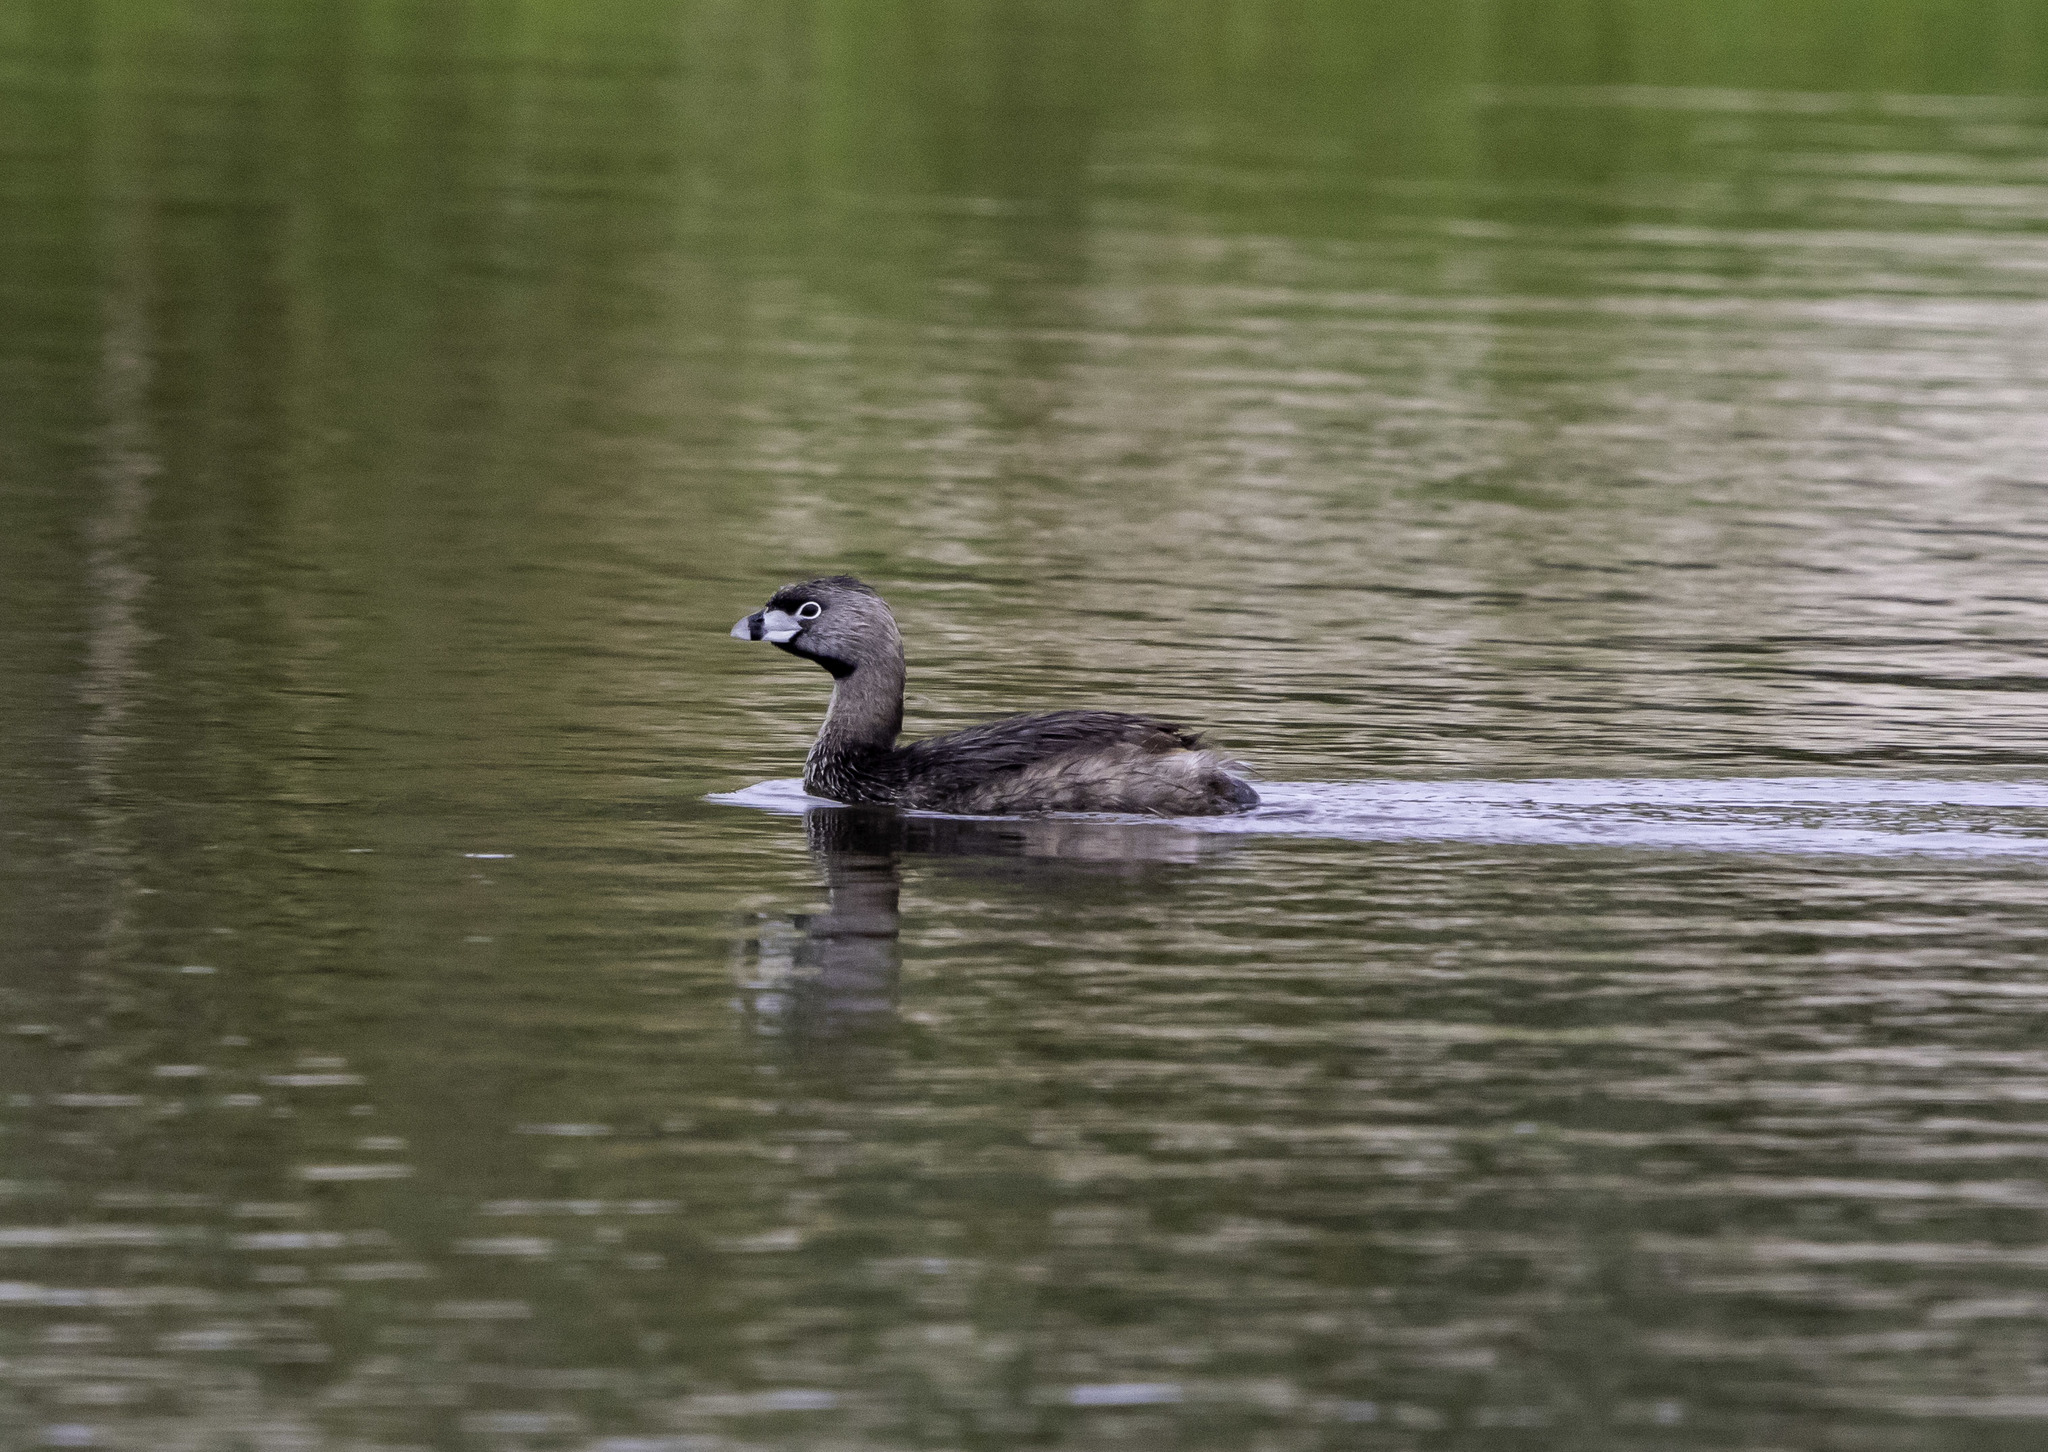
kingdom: Animalia
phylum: Chordata
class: Aves
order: Podicipediformes
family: Podicipedidae
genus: Podilymbus
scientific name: Podilymbus podiceps
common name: Pied-billed grebe
